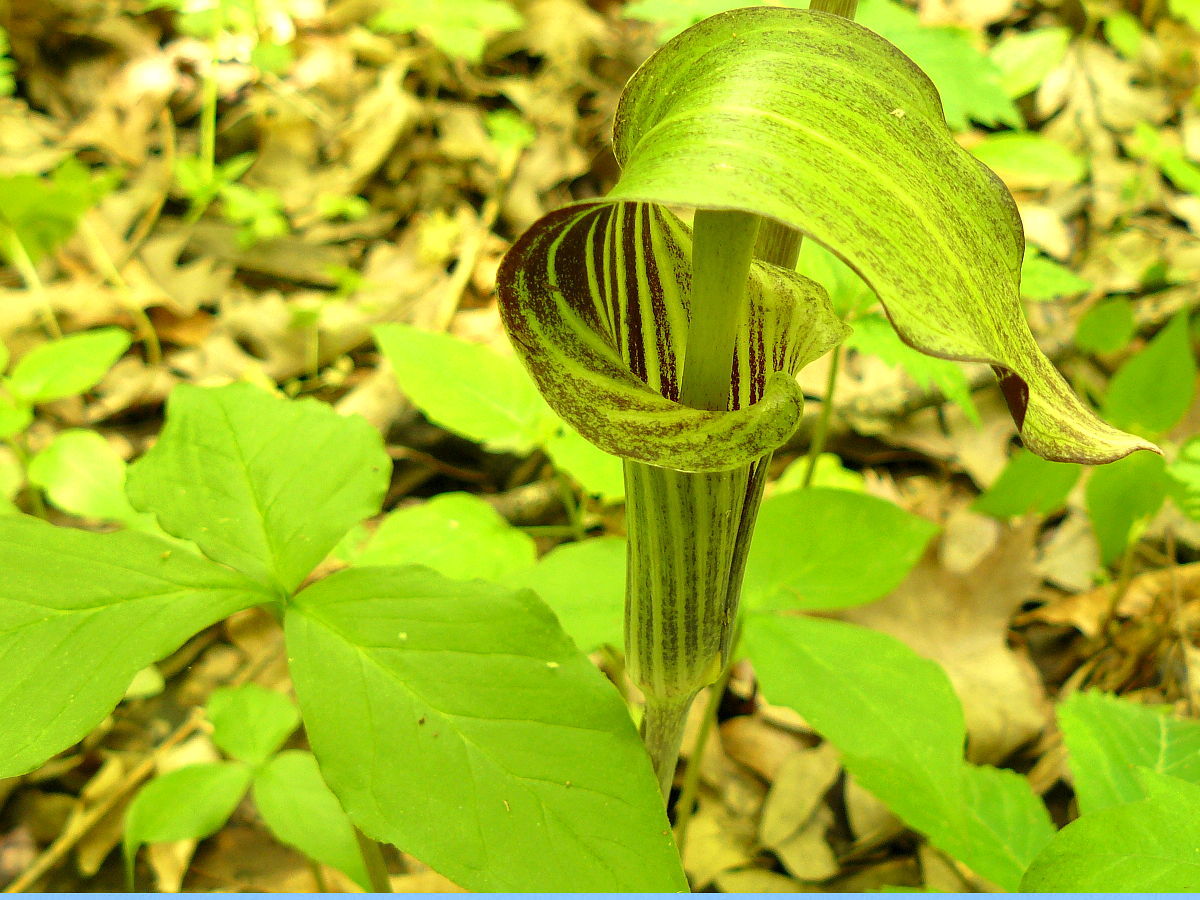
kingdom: Plantae
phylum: Tracheophyta
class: Liliopsida
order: Alismatales
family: Araceae
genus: Arisaema
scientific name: Arisaema triphyllum
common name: Jack-in-the-pulpit
